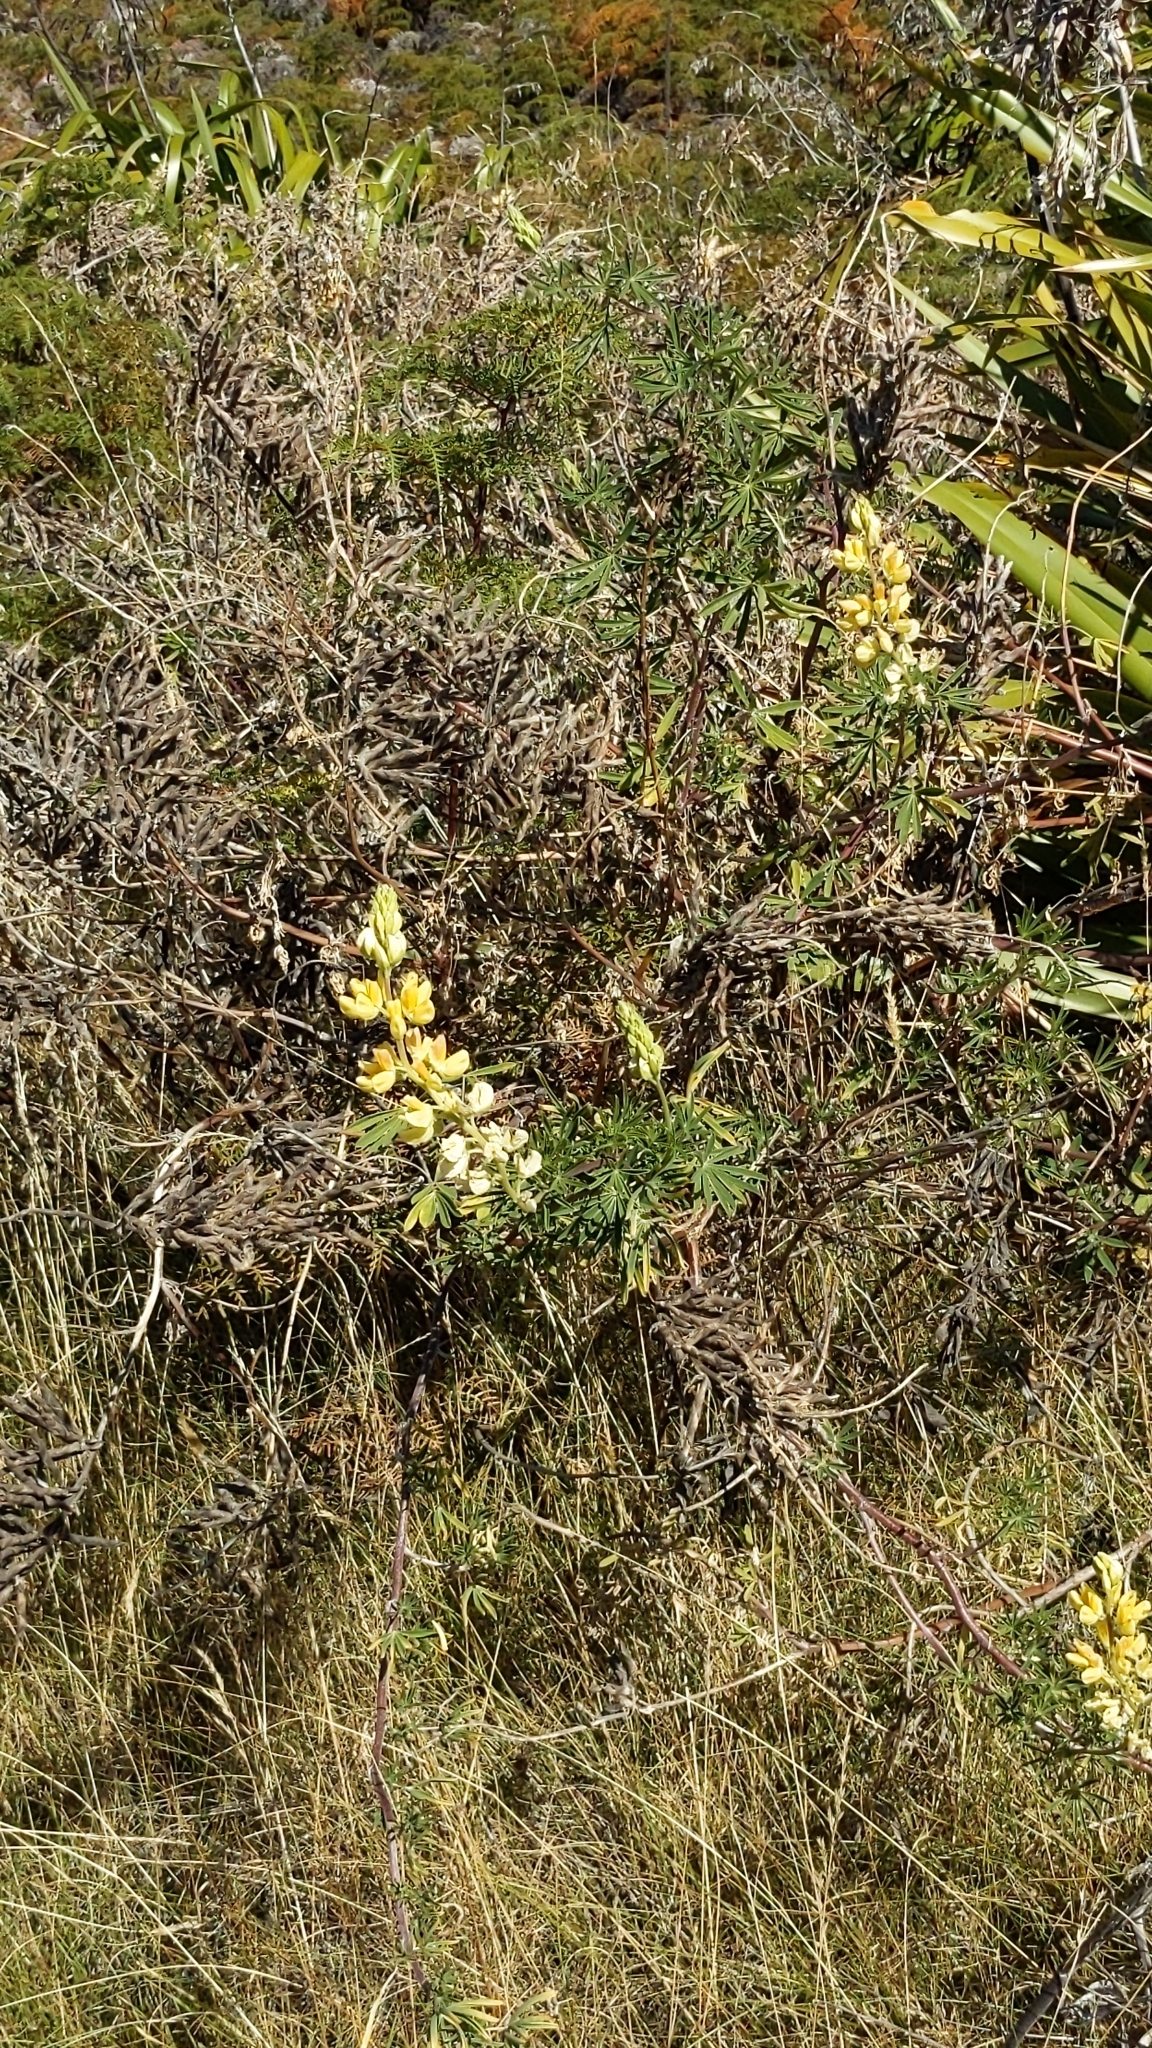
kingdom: Plantae
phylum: Tracheophyta
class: Magnoliopsida
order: Fabales
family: Fabaceae
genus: Lupinus
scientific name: Lupinus arboreus
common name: Yellow bush lupine
